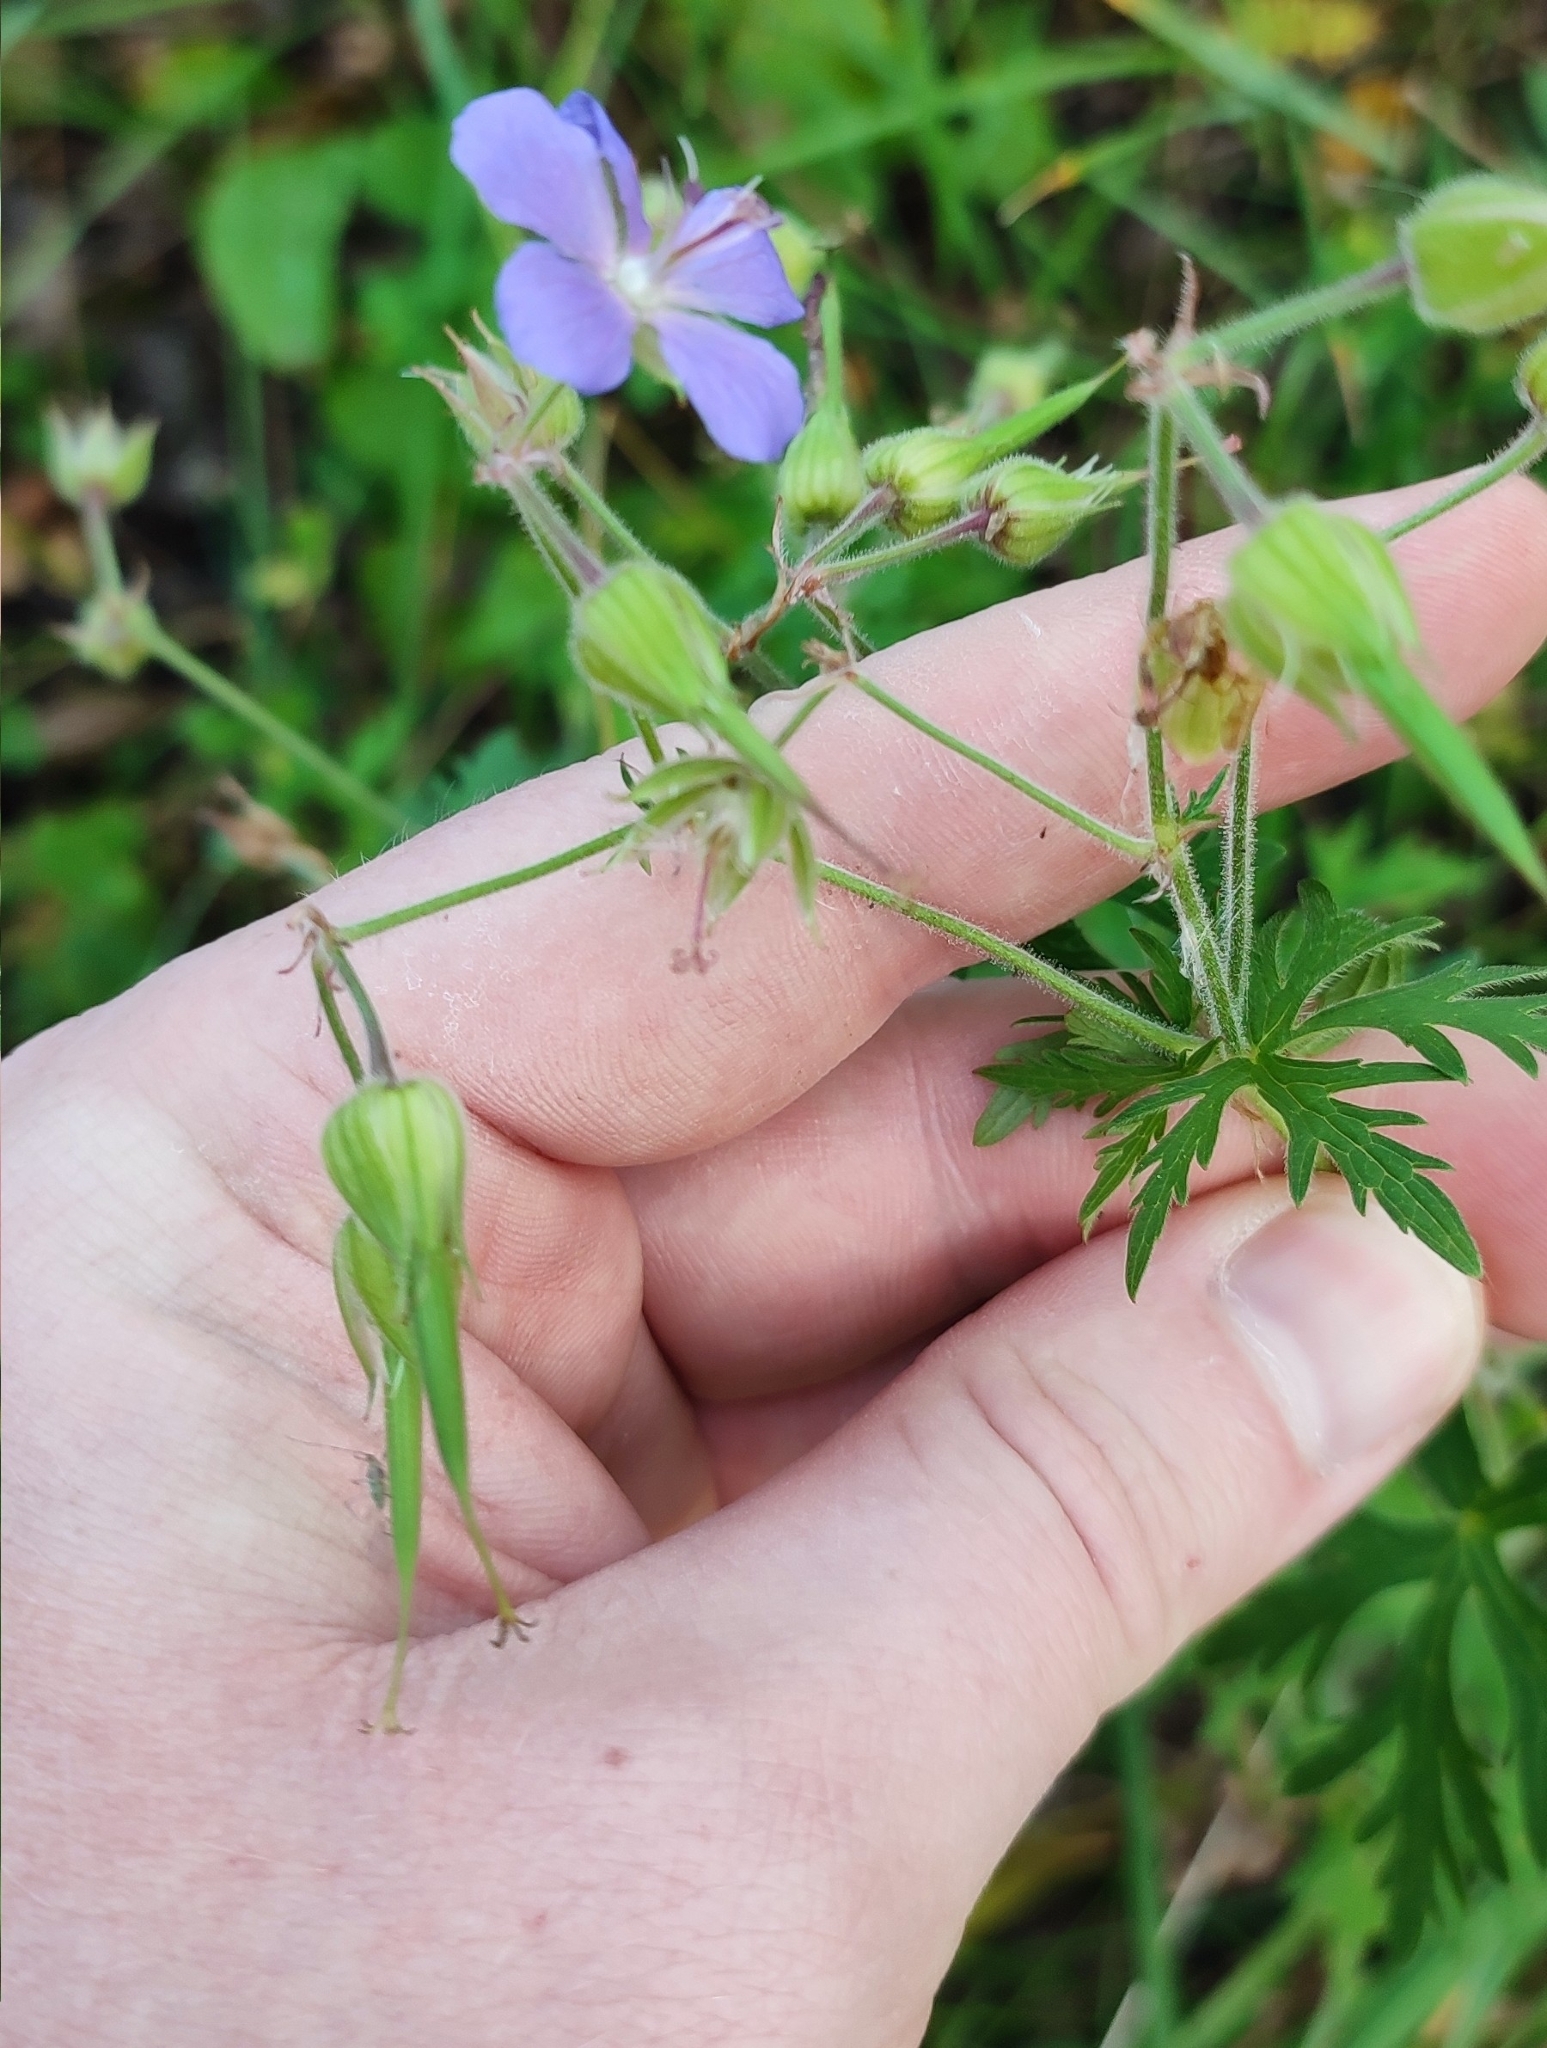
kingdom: Plantae
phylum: Tracheophyta
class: Magnoliopsida
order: Geraniales
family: Geraniaceae
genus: Geranium
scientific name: Geranium pratense
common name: Meadow crane's-bill
